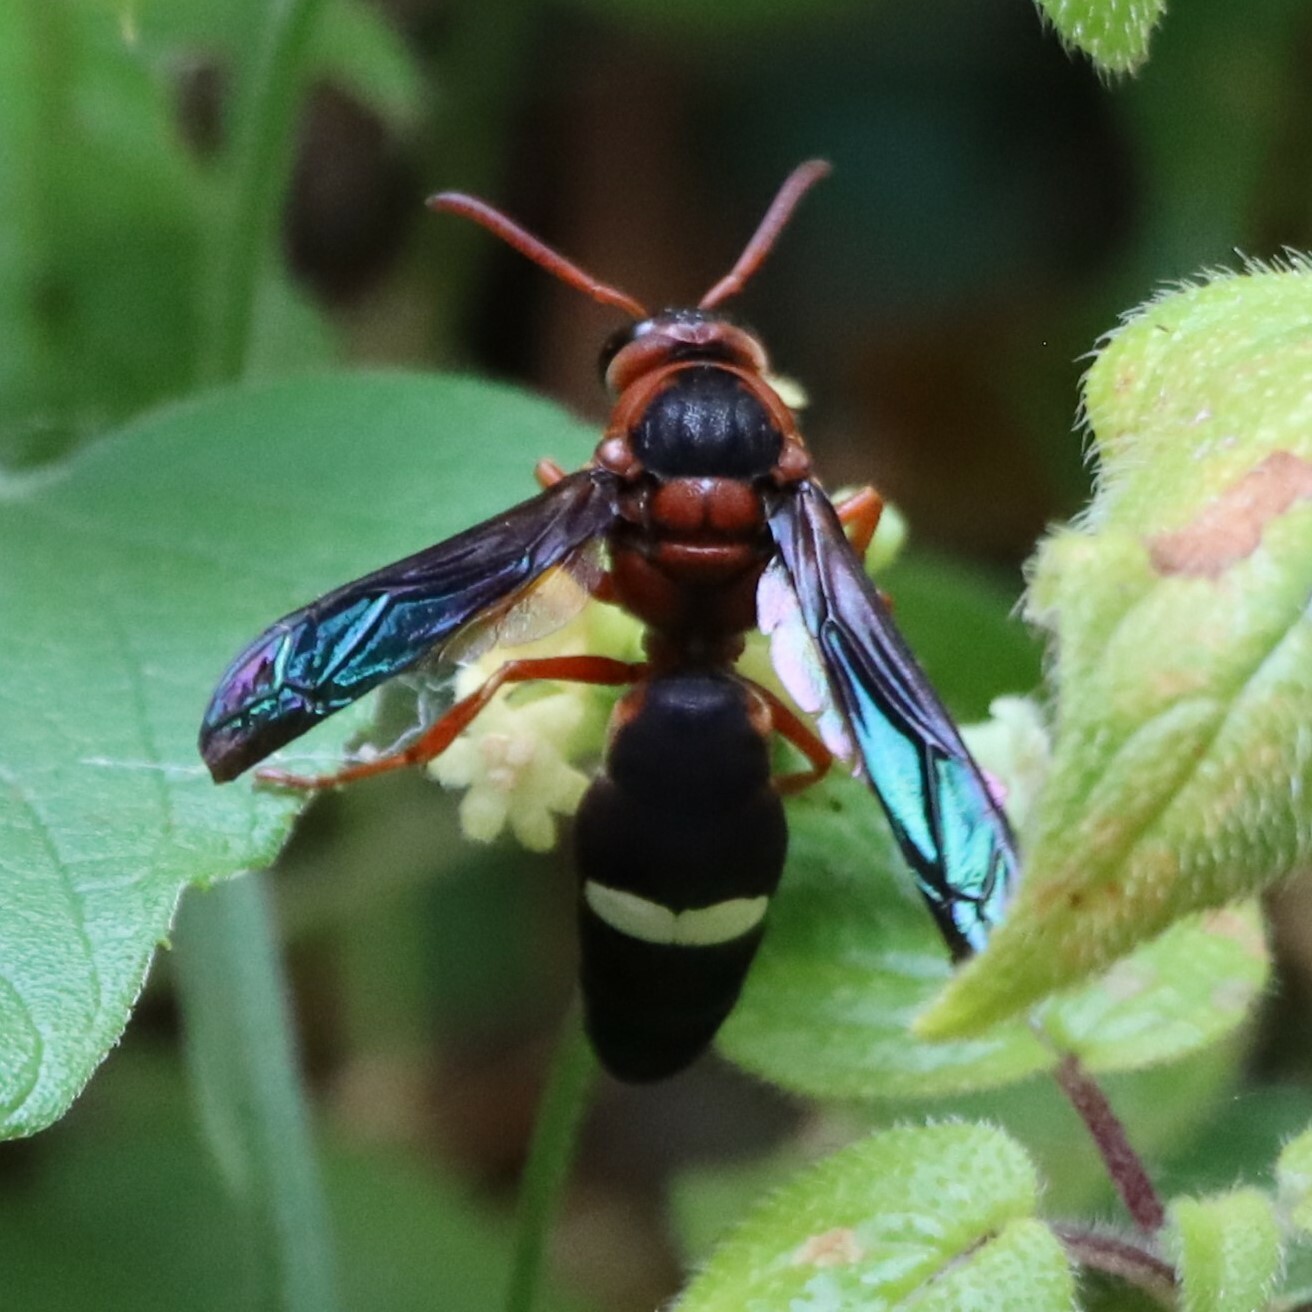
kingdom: Animalia
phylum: Arthropoda
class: Insecta
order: Hymenoptera
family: Eumenidae
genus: Anterhynchium
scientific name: Anterhynchium grayi
